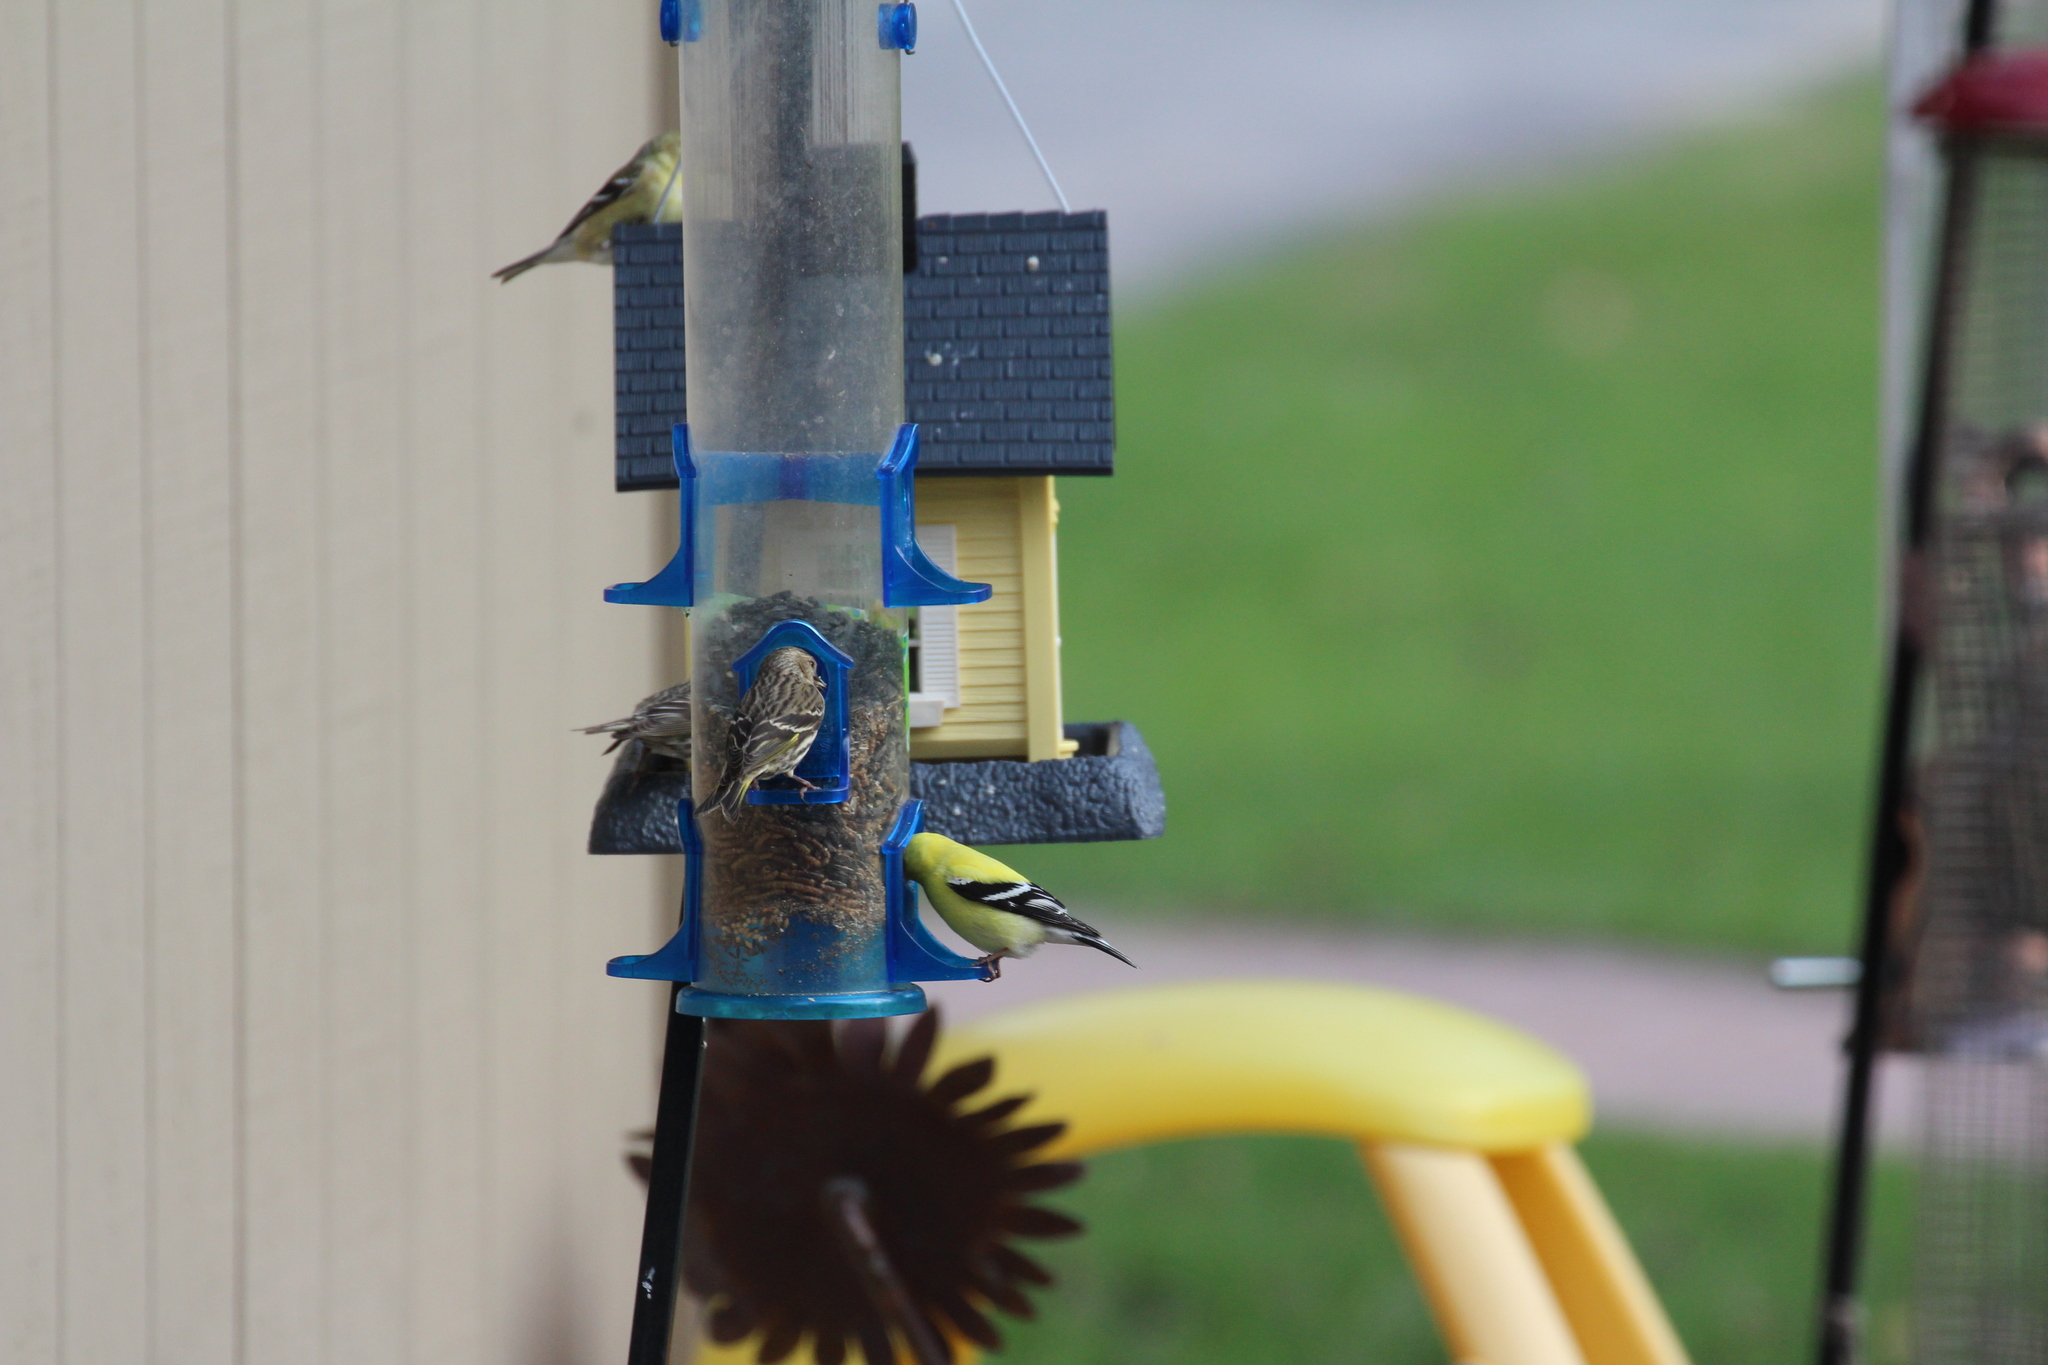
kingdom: Animalia
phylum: Chordata
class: Aves
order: Passeriformes
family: Fringillidae
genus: Spinus
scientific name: Spinus tristis
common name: American goldfinch
